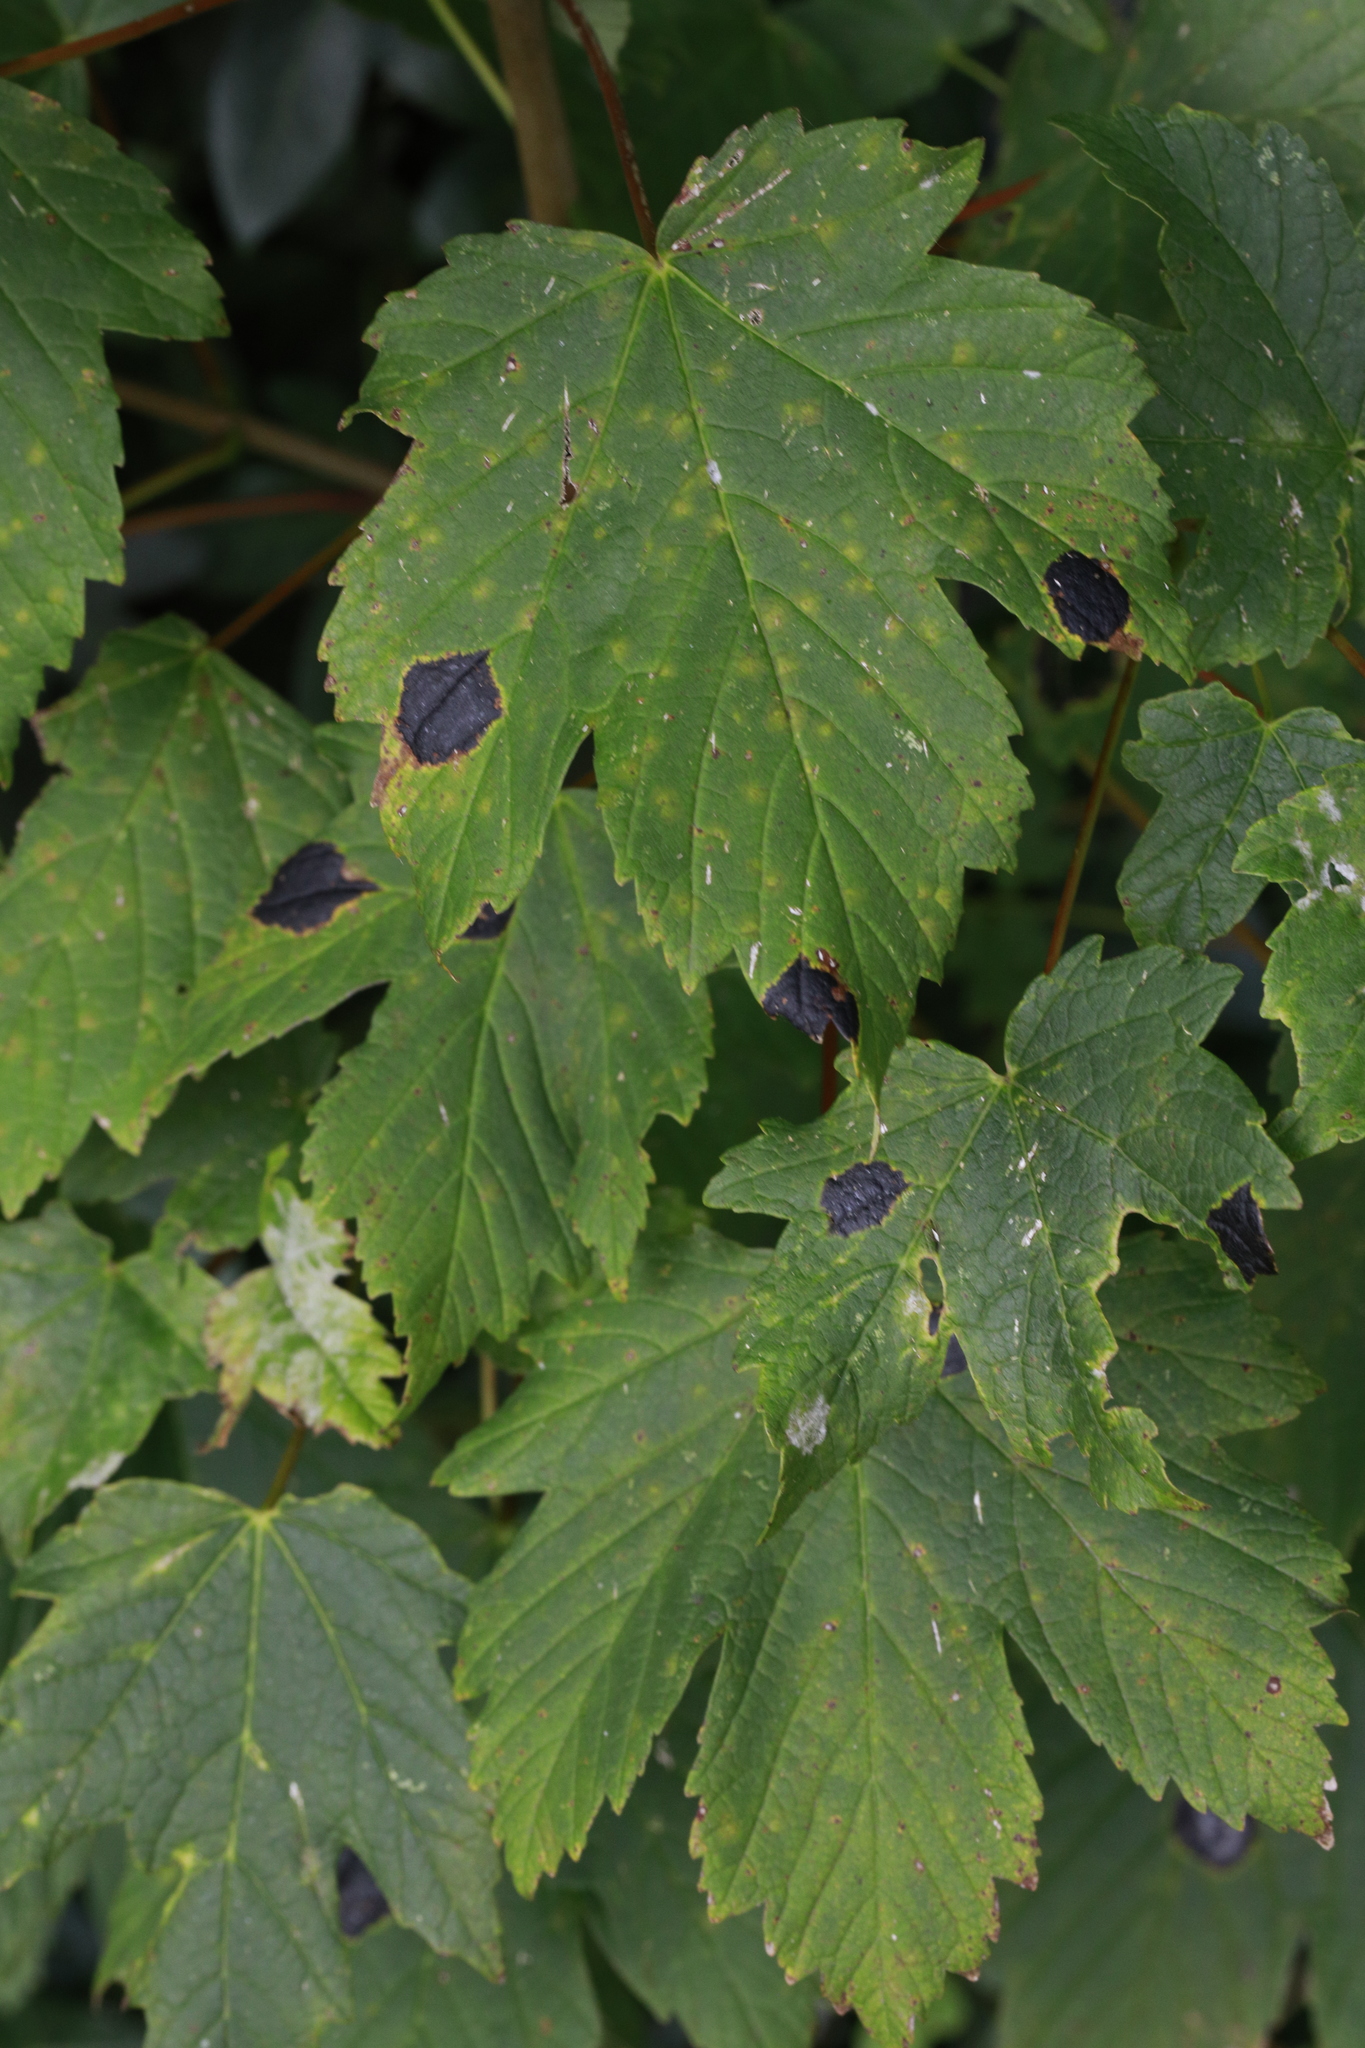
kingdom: Fungi
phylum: Ascomycota
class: Leotiomycetes
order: Rhytismatales
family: Rhytismataceae
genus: Rhytisma
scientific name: Rhytisma acerinum
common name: European tar spot
